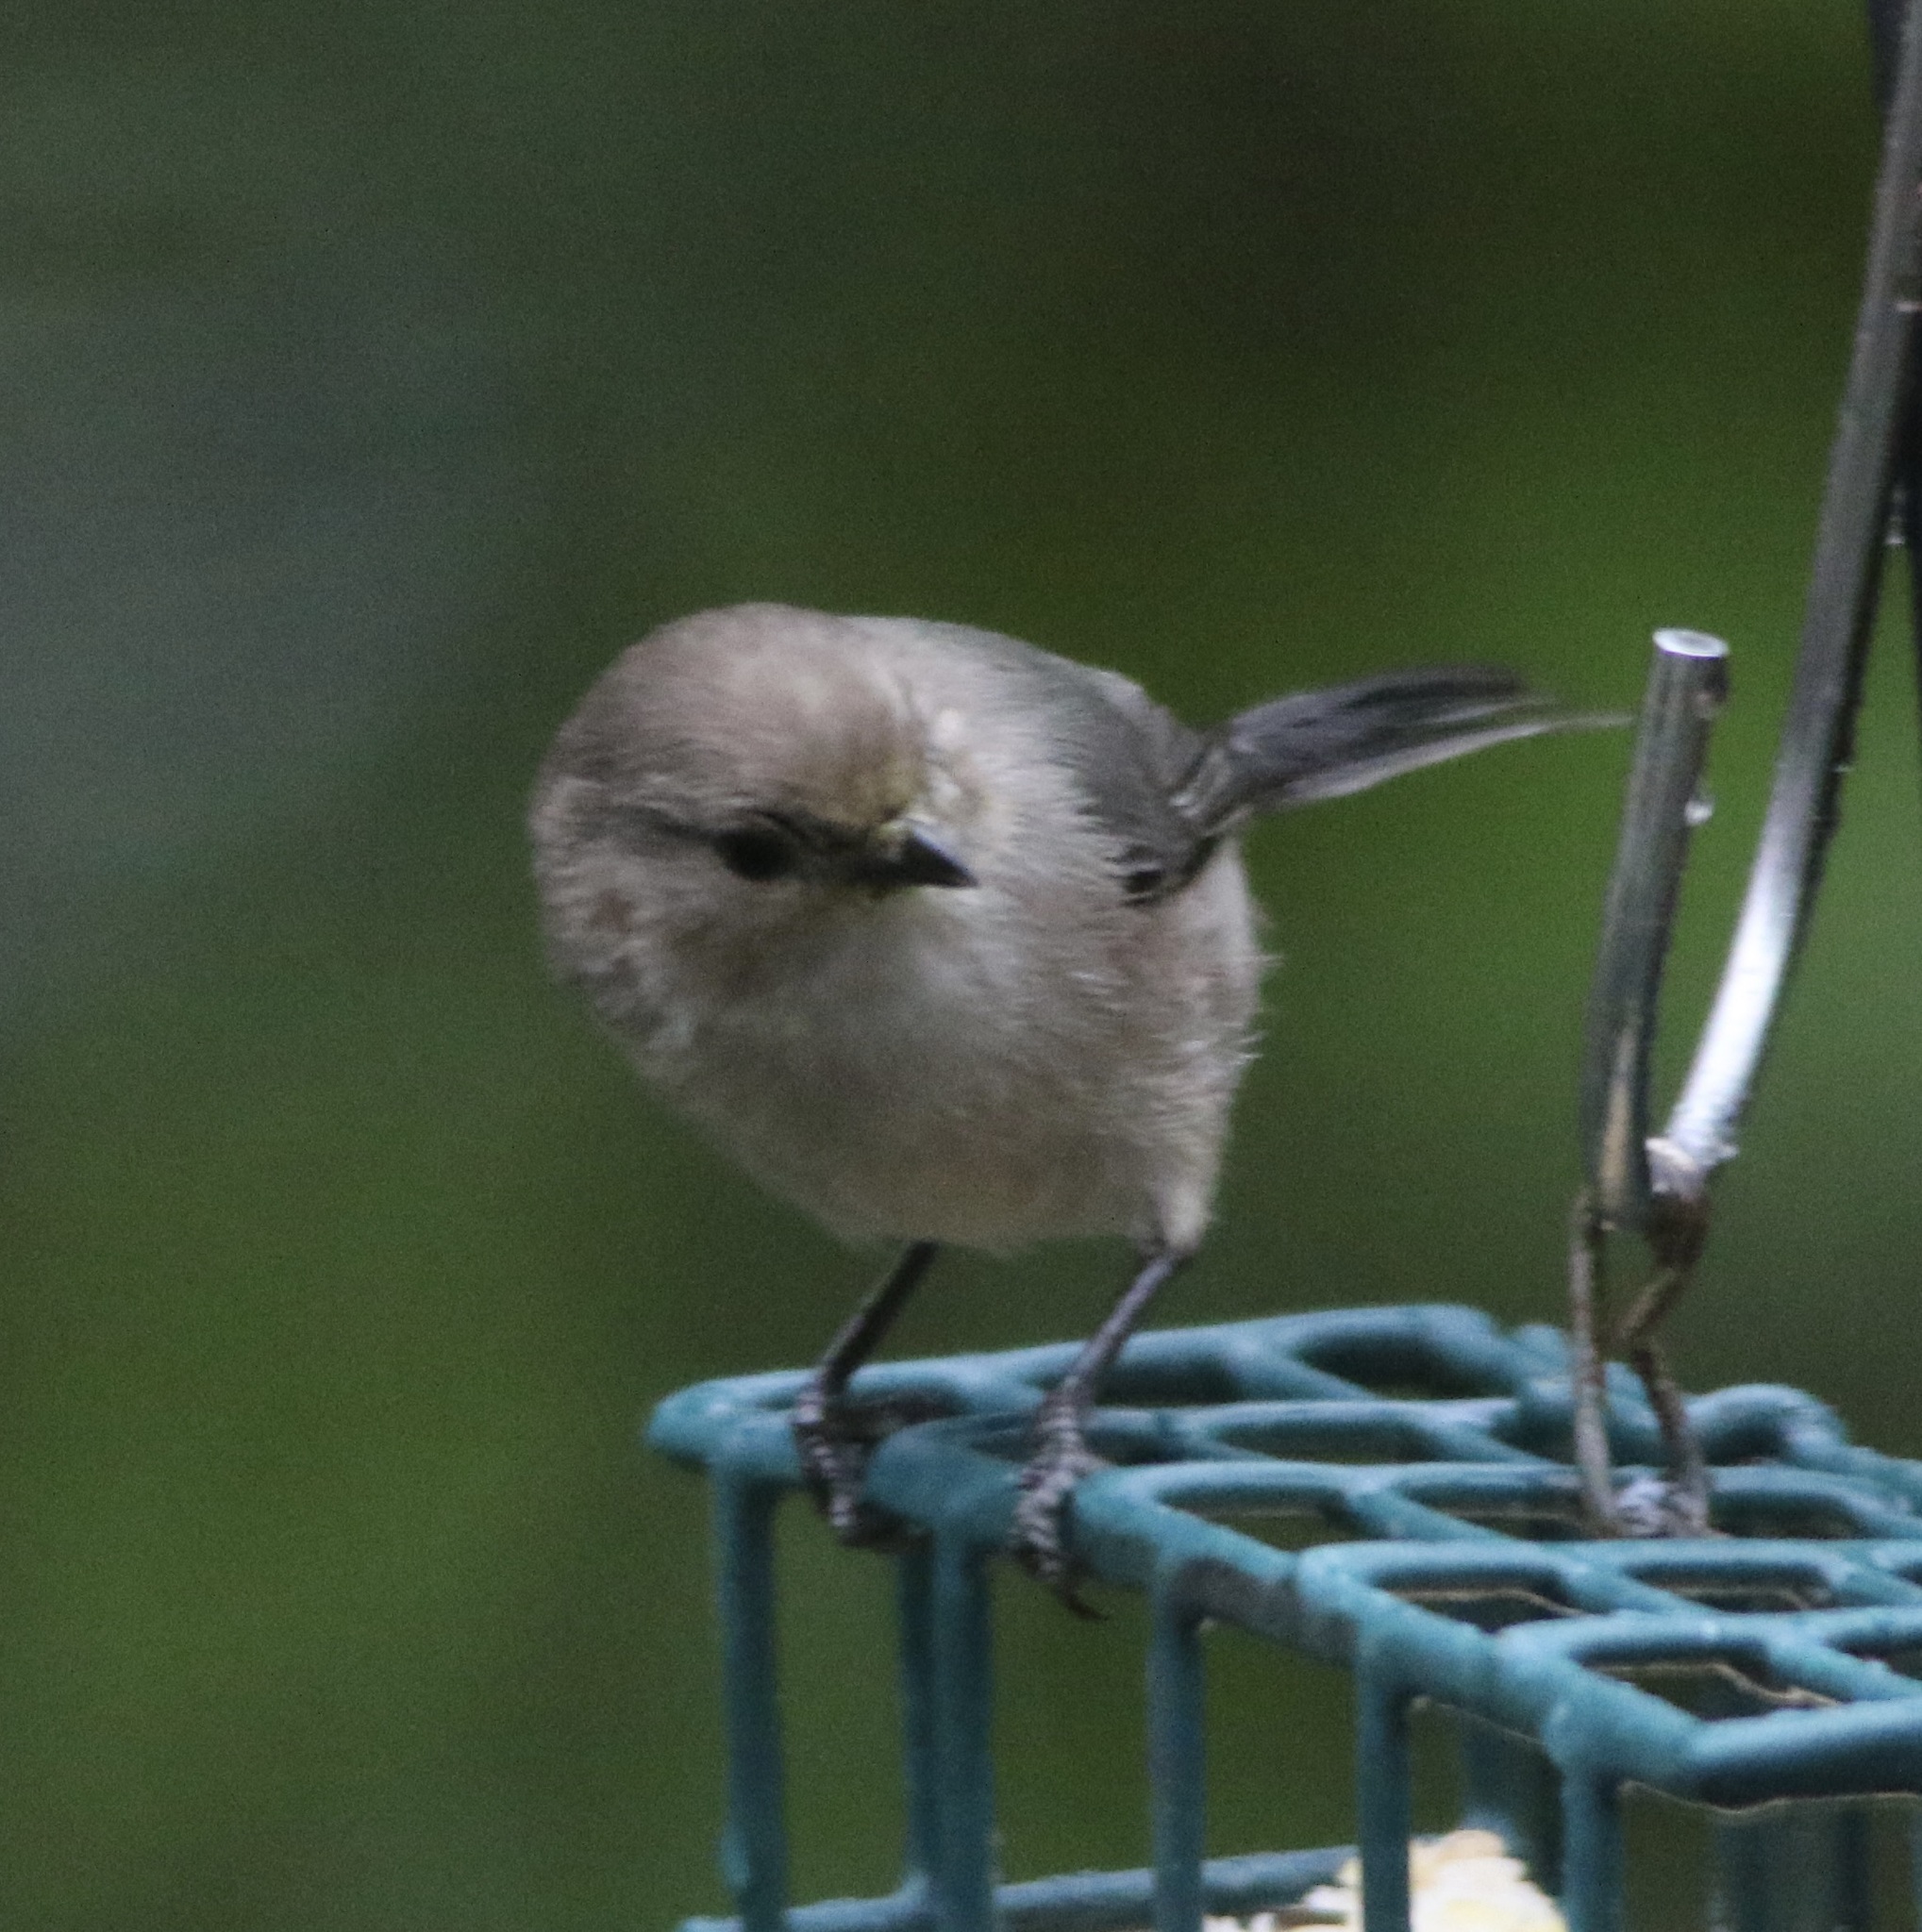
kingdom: Animalia
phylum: Chordata
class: Aves
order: Passeriformes
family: Aegithalidae
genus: Psaltriparus
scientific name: Psaltriparus minimus
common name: American bushtit
